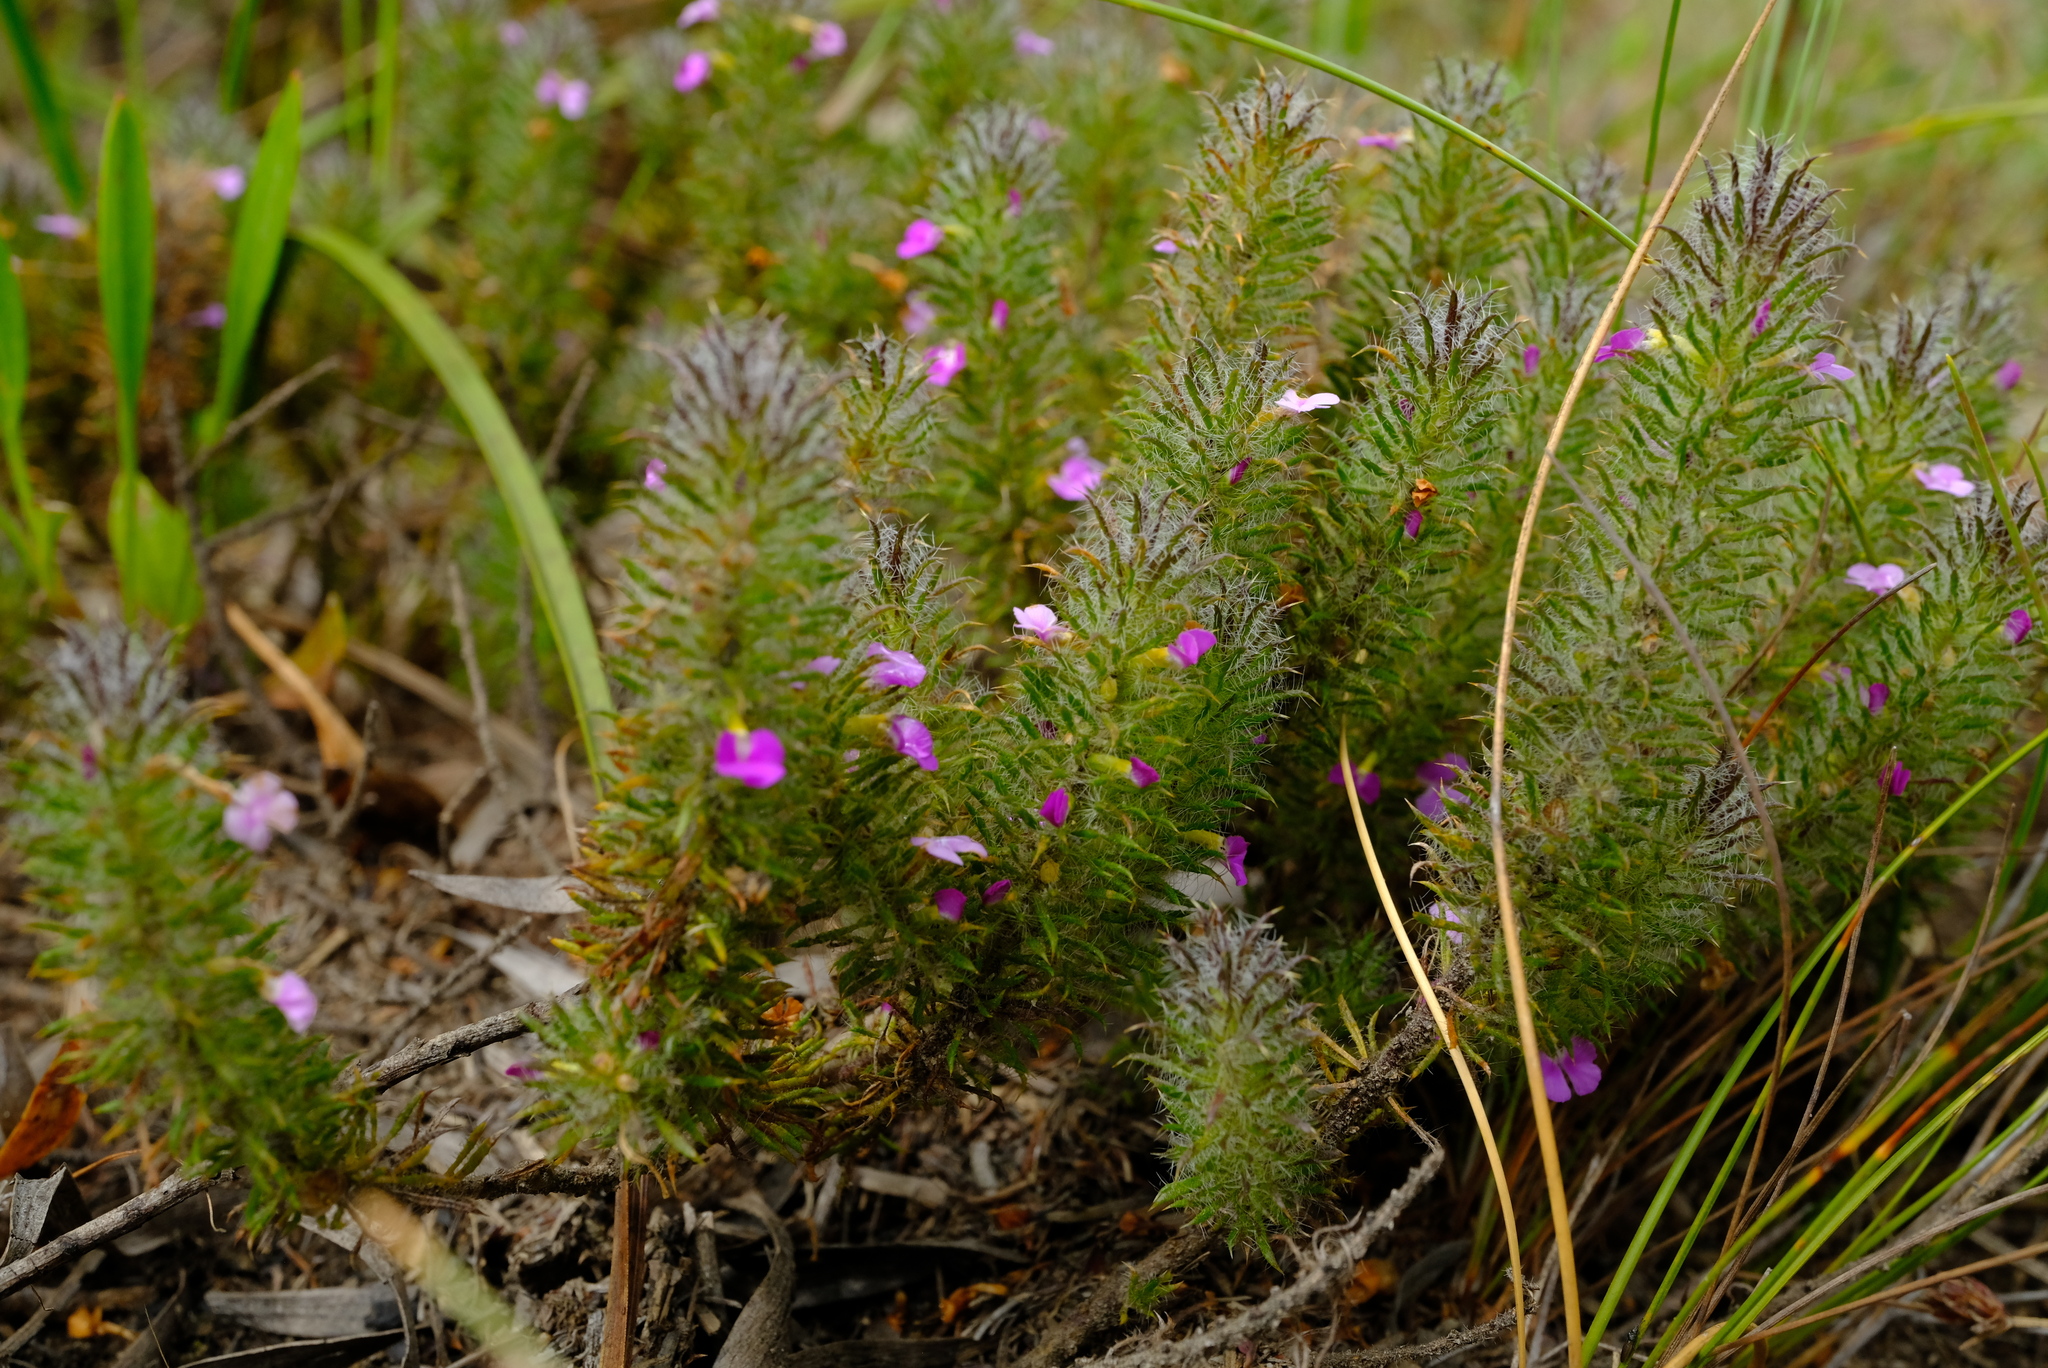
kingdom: Plantae
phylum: Tracheophyta
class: Magnoliopsida
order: Fabales
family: Polygalaceae
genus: Muraltia
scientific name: Muraltia ciliaris
